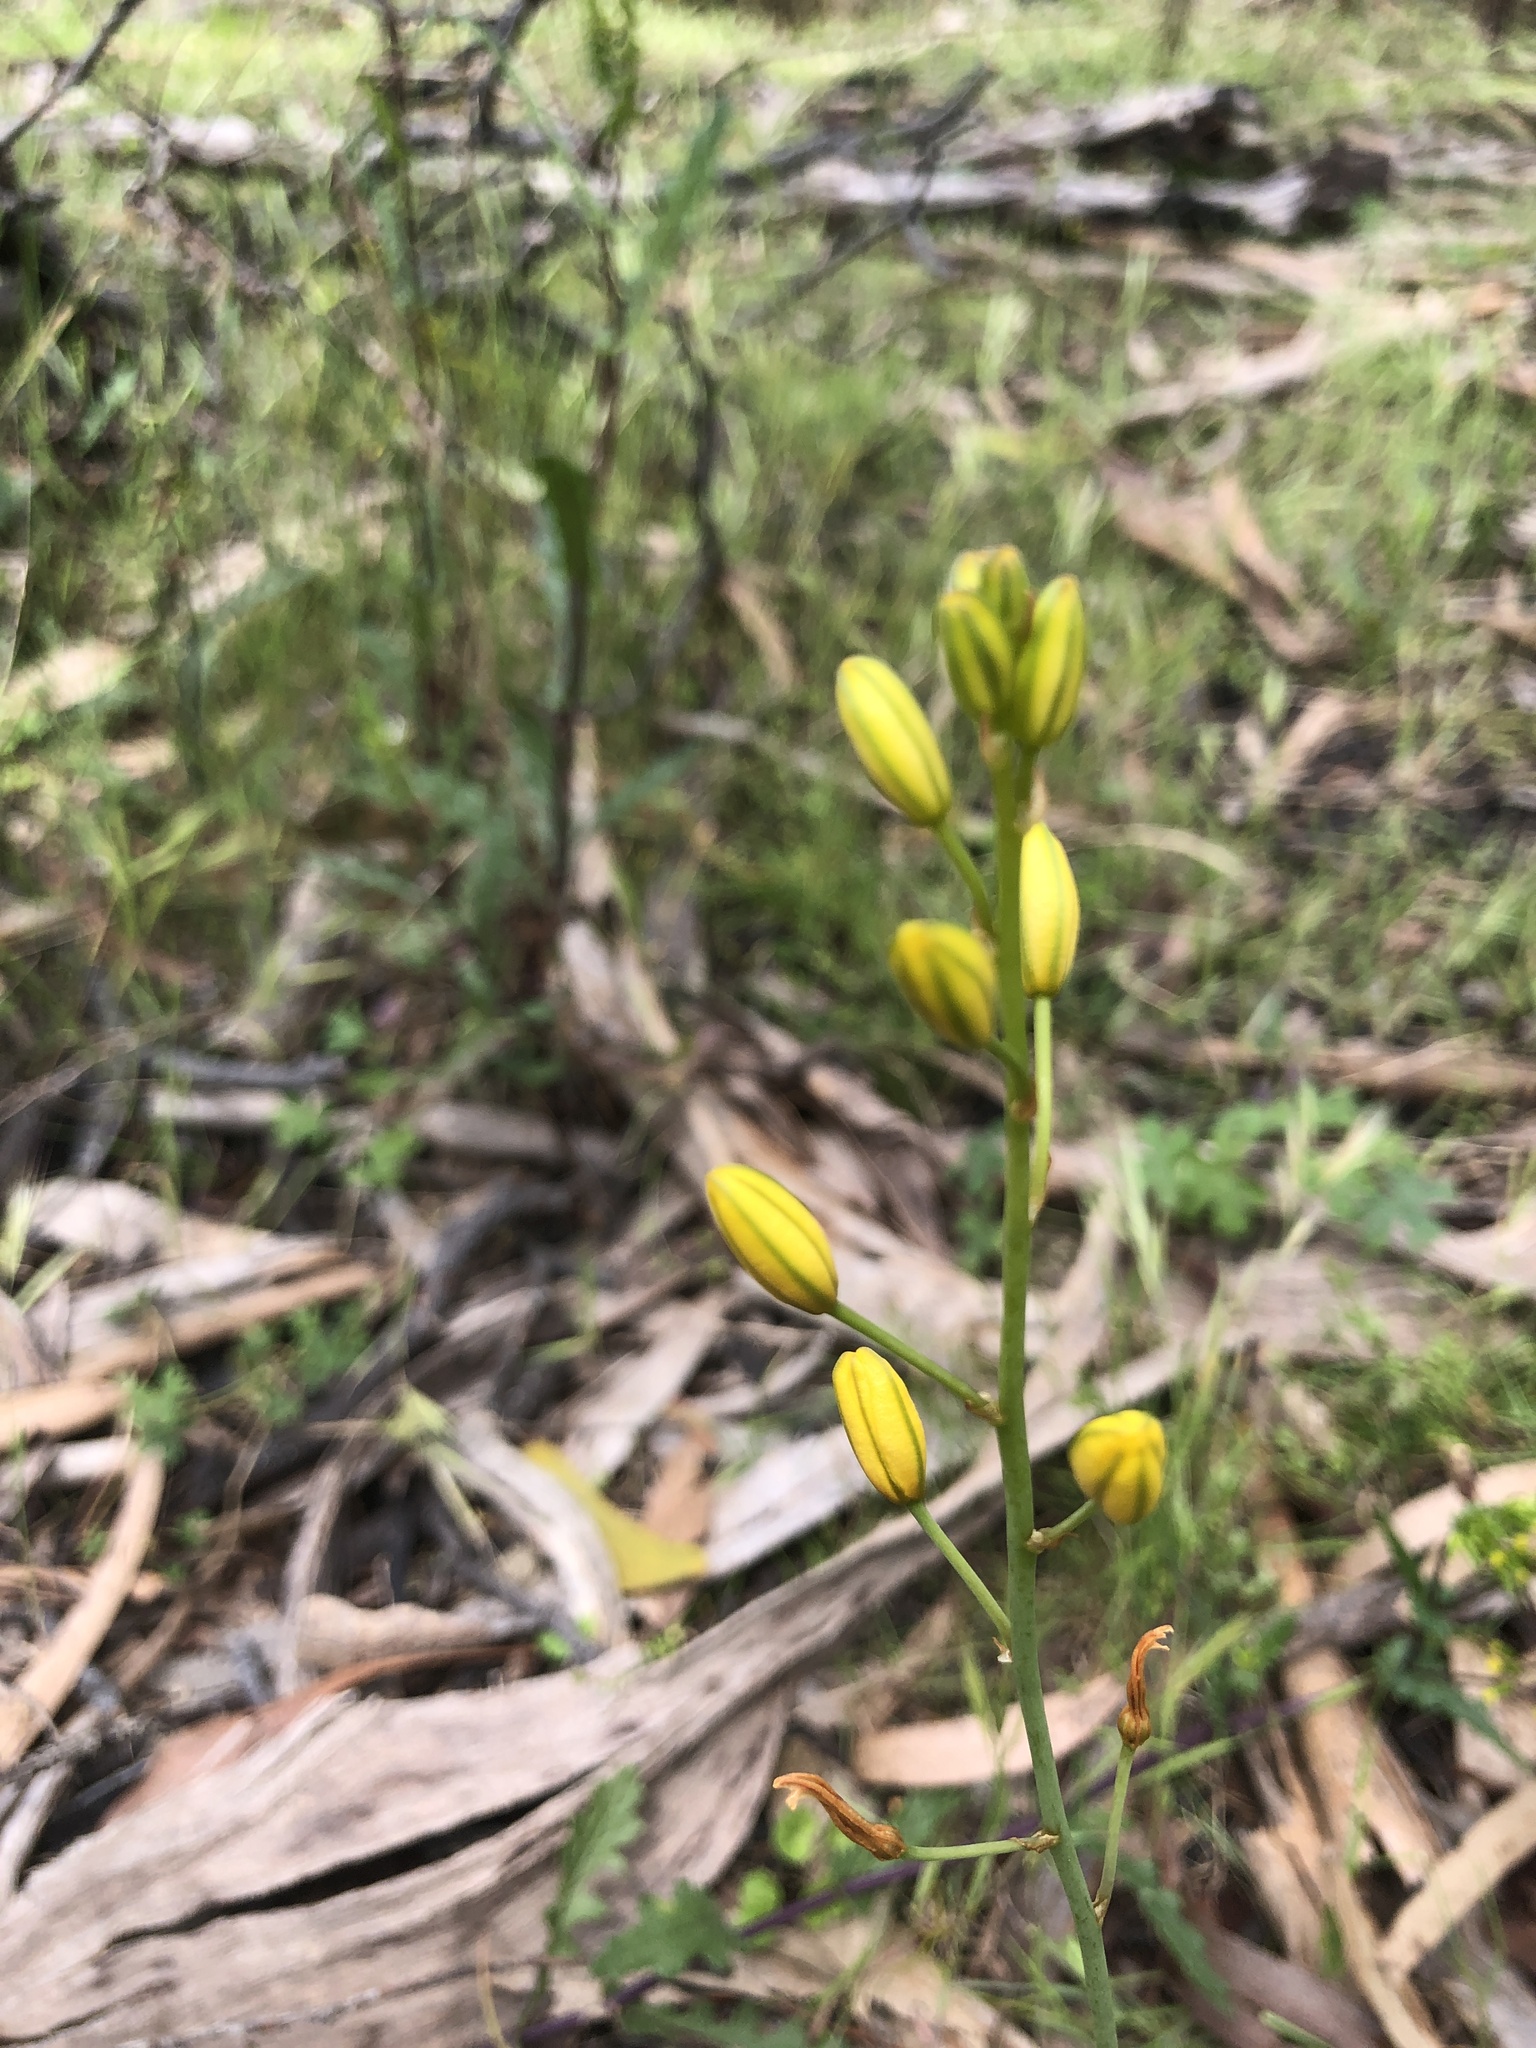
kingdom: Plantae
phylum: Tracheophyta
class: Liliopsida
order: Asparagales
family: Asphodelaceae
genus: Bulbine
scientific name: Bulbine bulbosa
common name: Golden-lily
